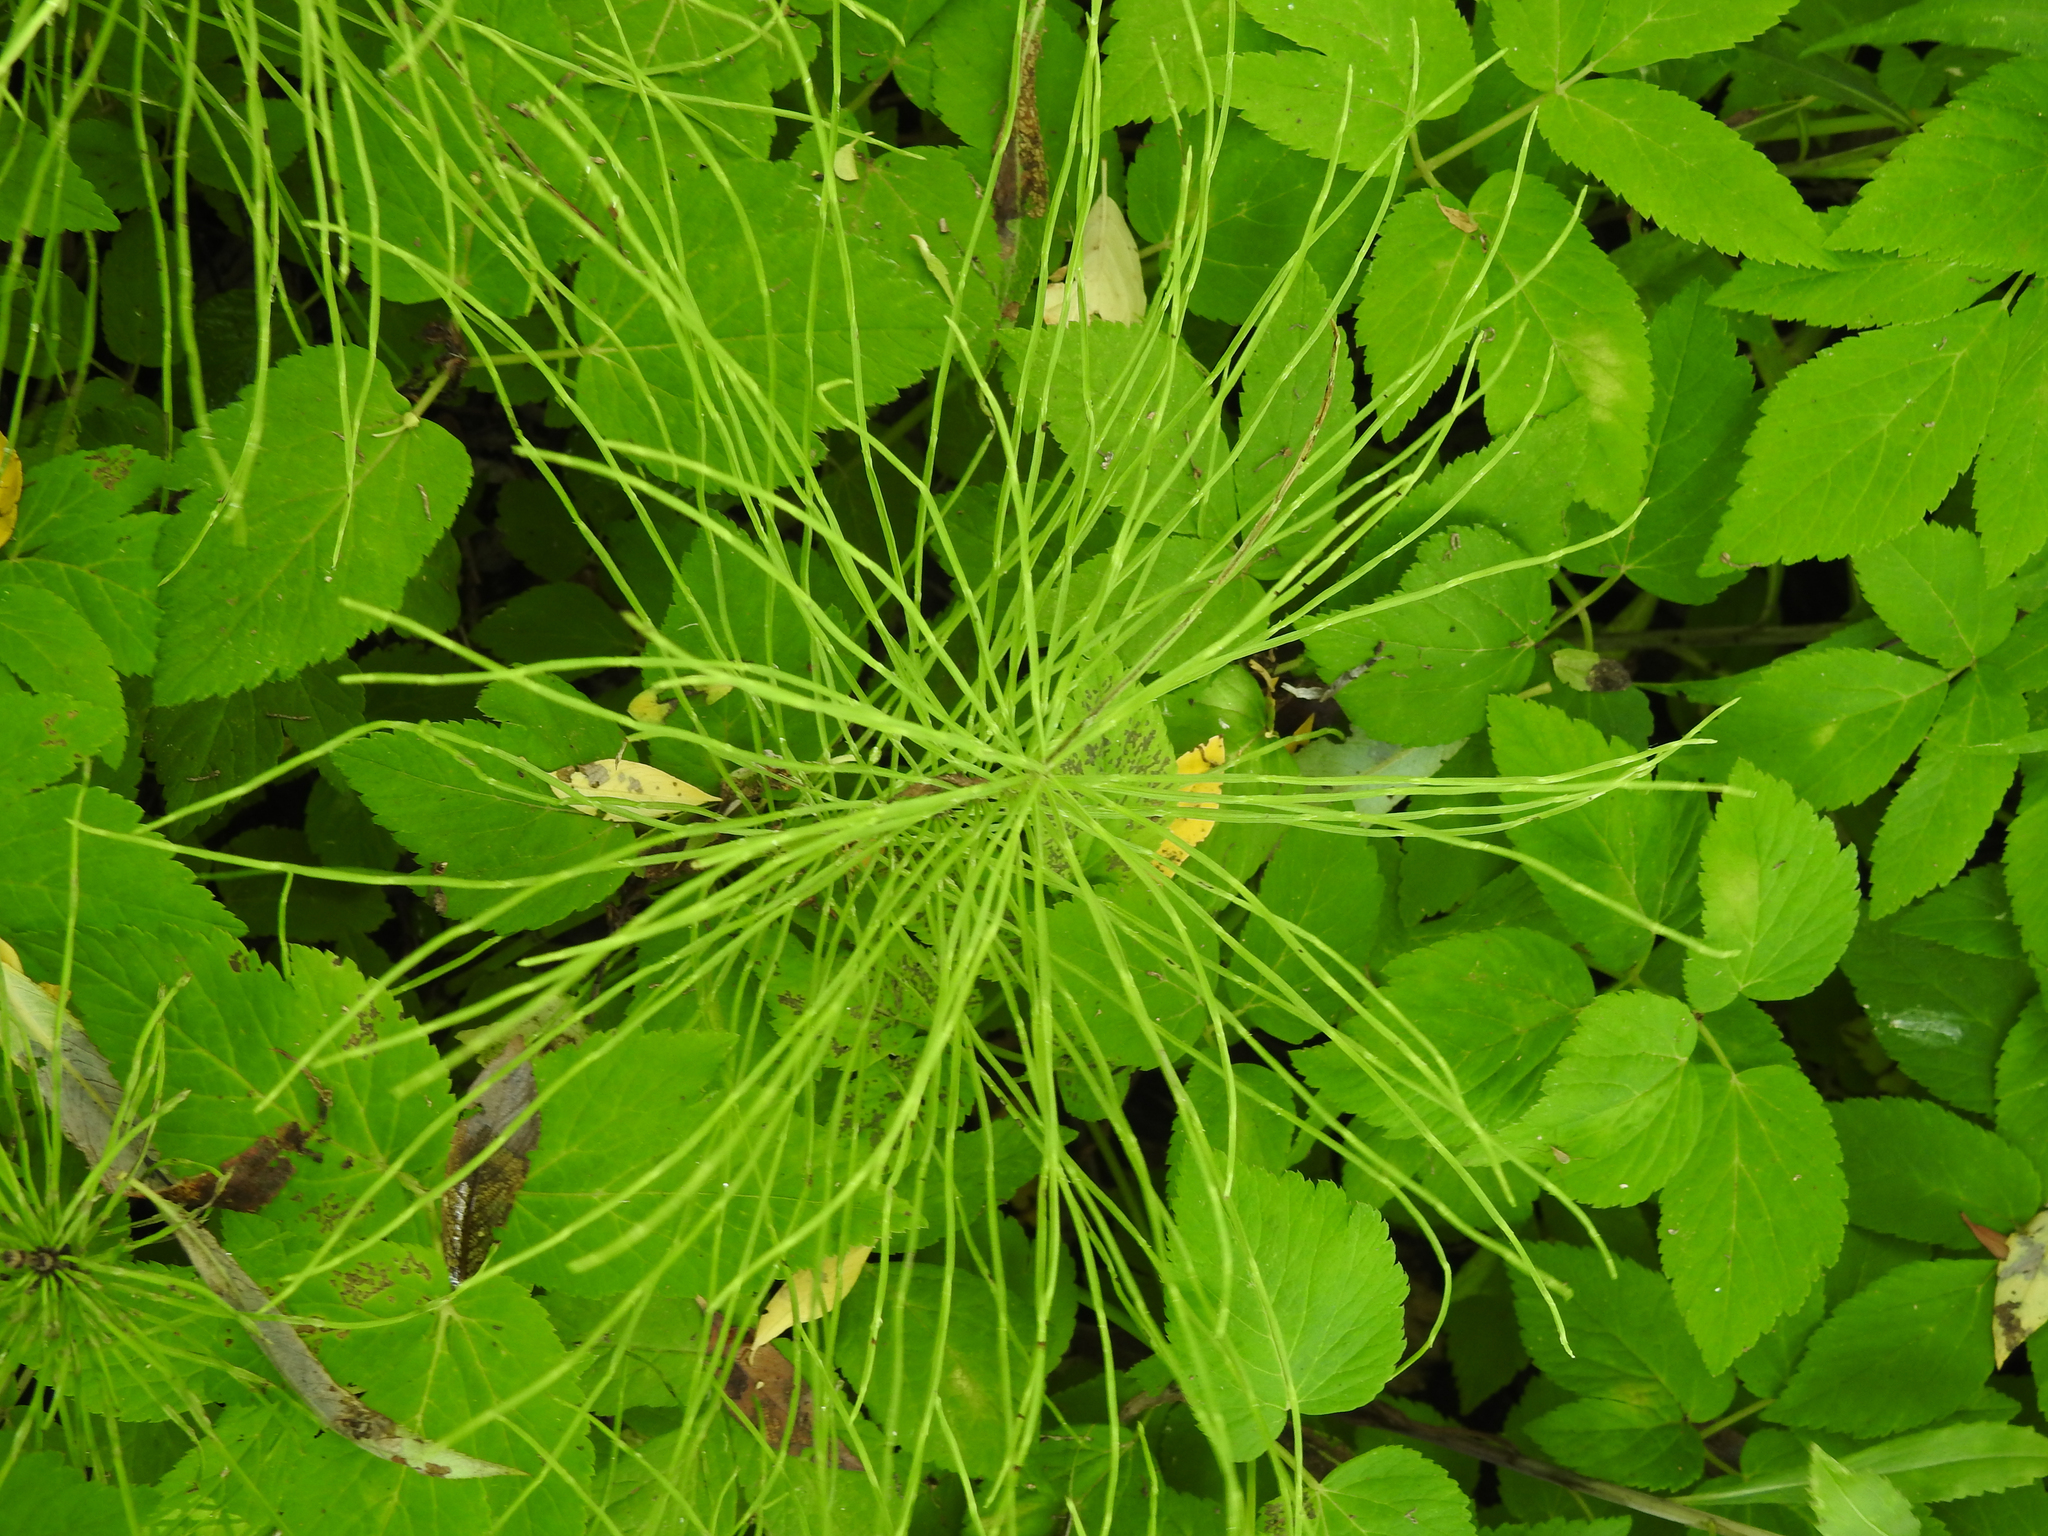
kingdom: Plantae
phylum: Tracheophyta
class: Polypodiopsida
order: Equisetales
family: Equisetaceae
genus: Equisetum
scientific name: Equisetum arvense
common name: Field horsetail
